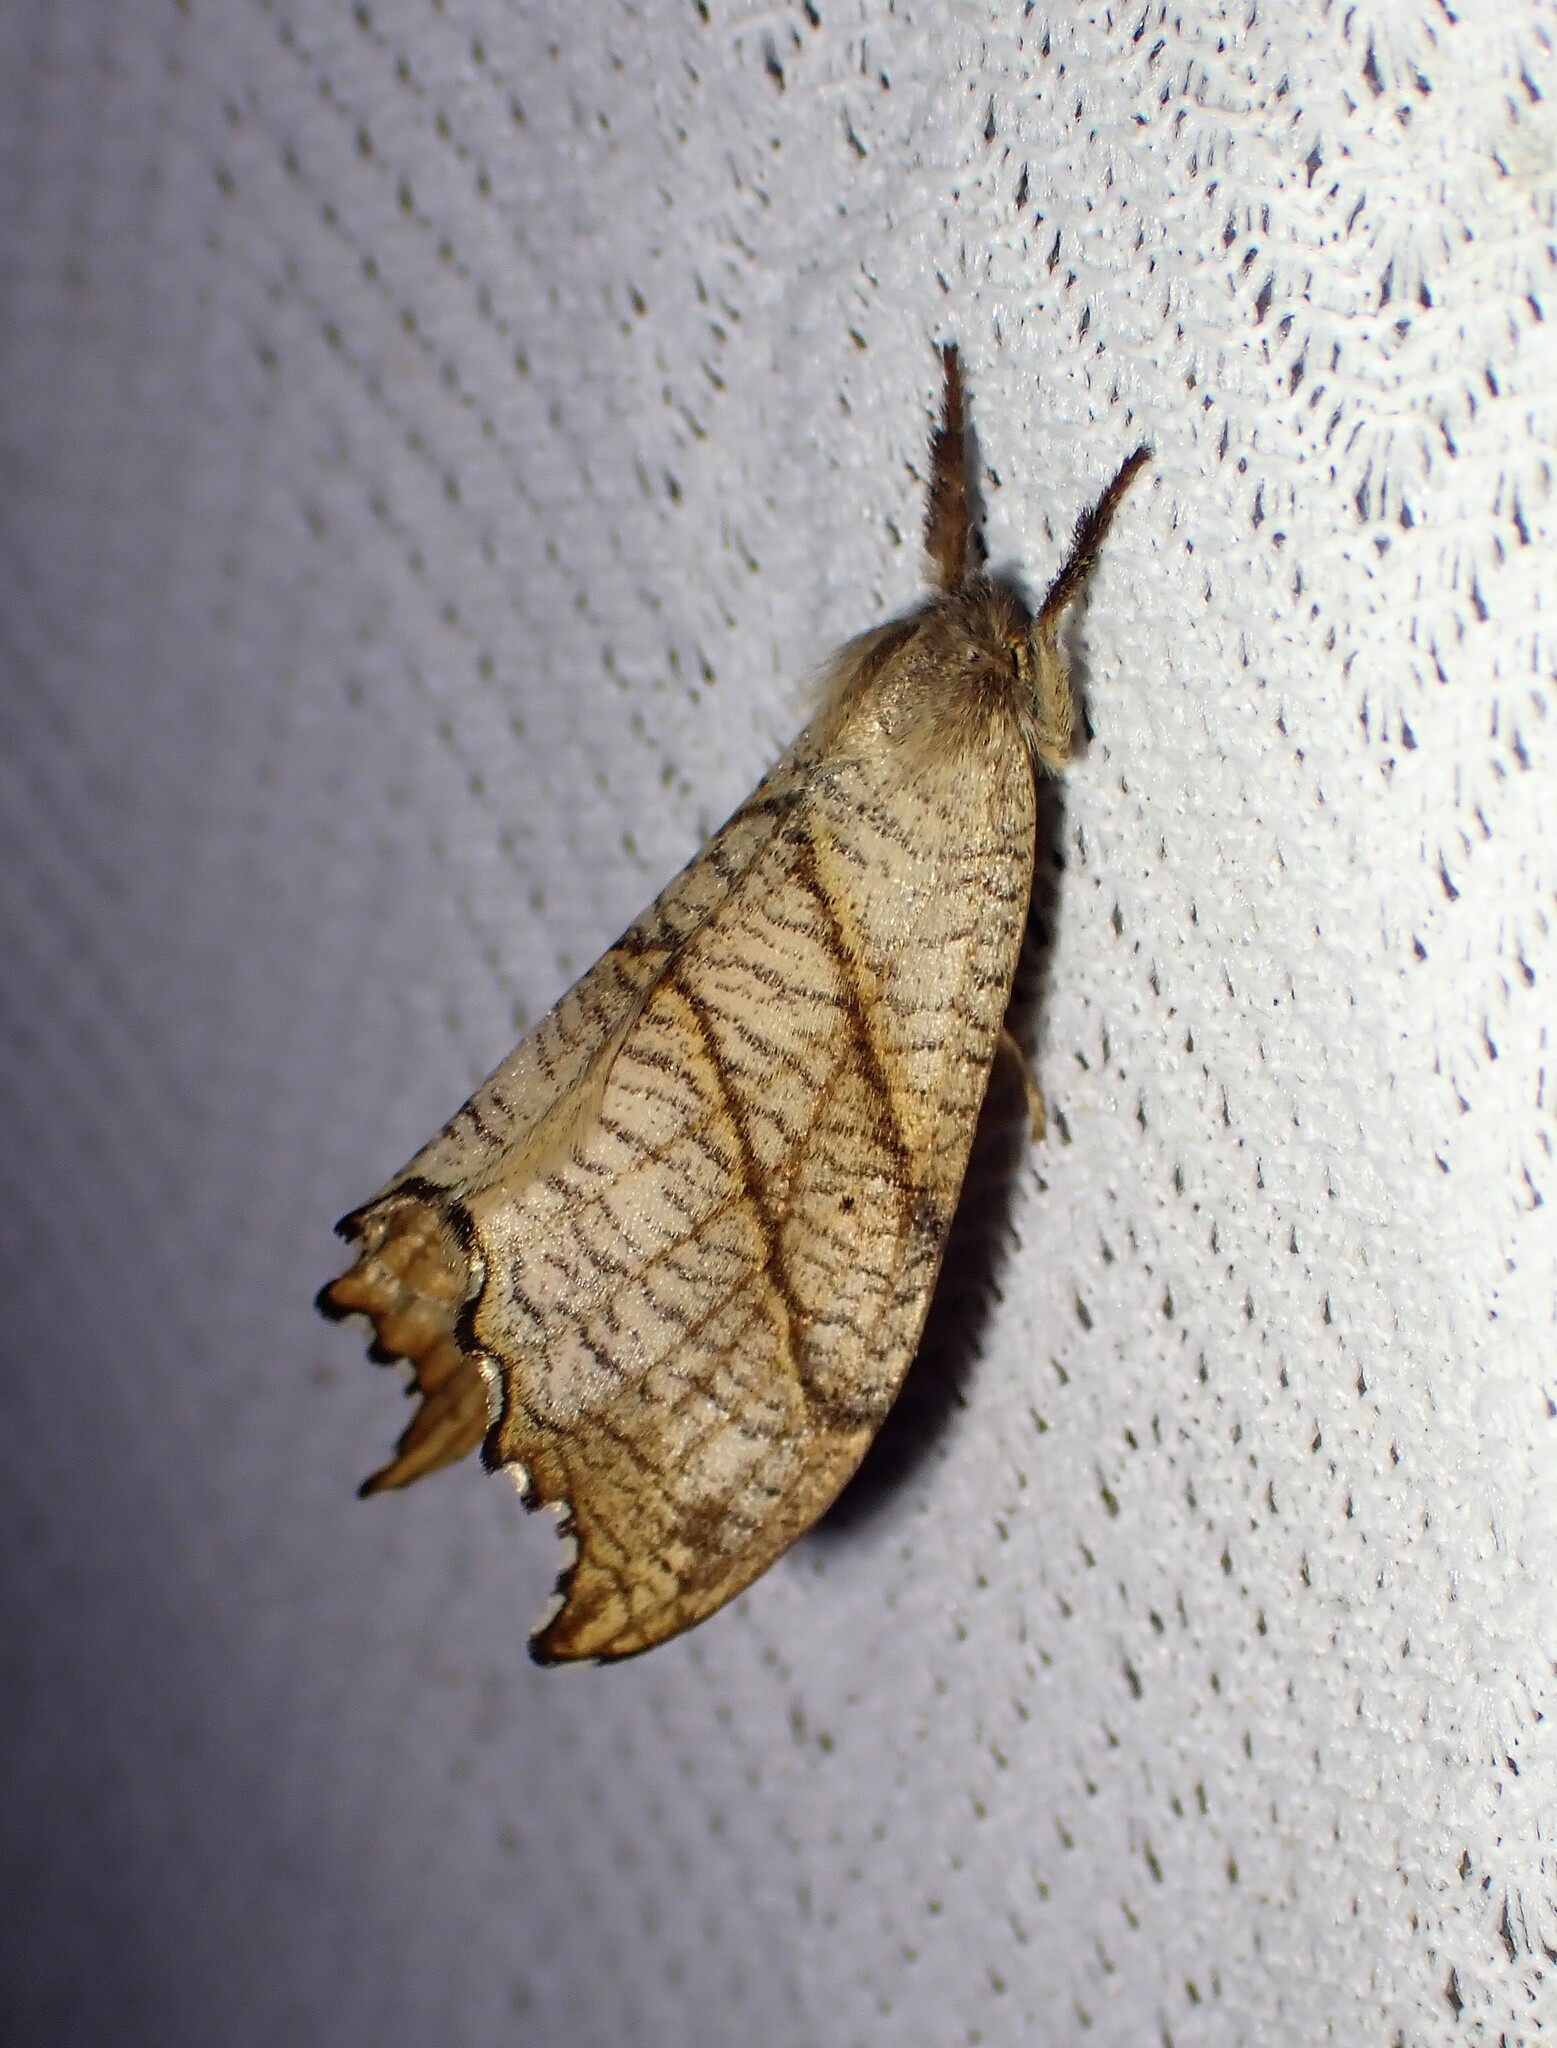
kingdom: Animalia
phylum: Arthropoda
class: Insecta
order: Lepidoptera
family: Drepanidae
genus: Falcaria
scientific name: Falcaria bilineata
